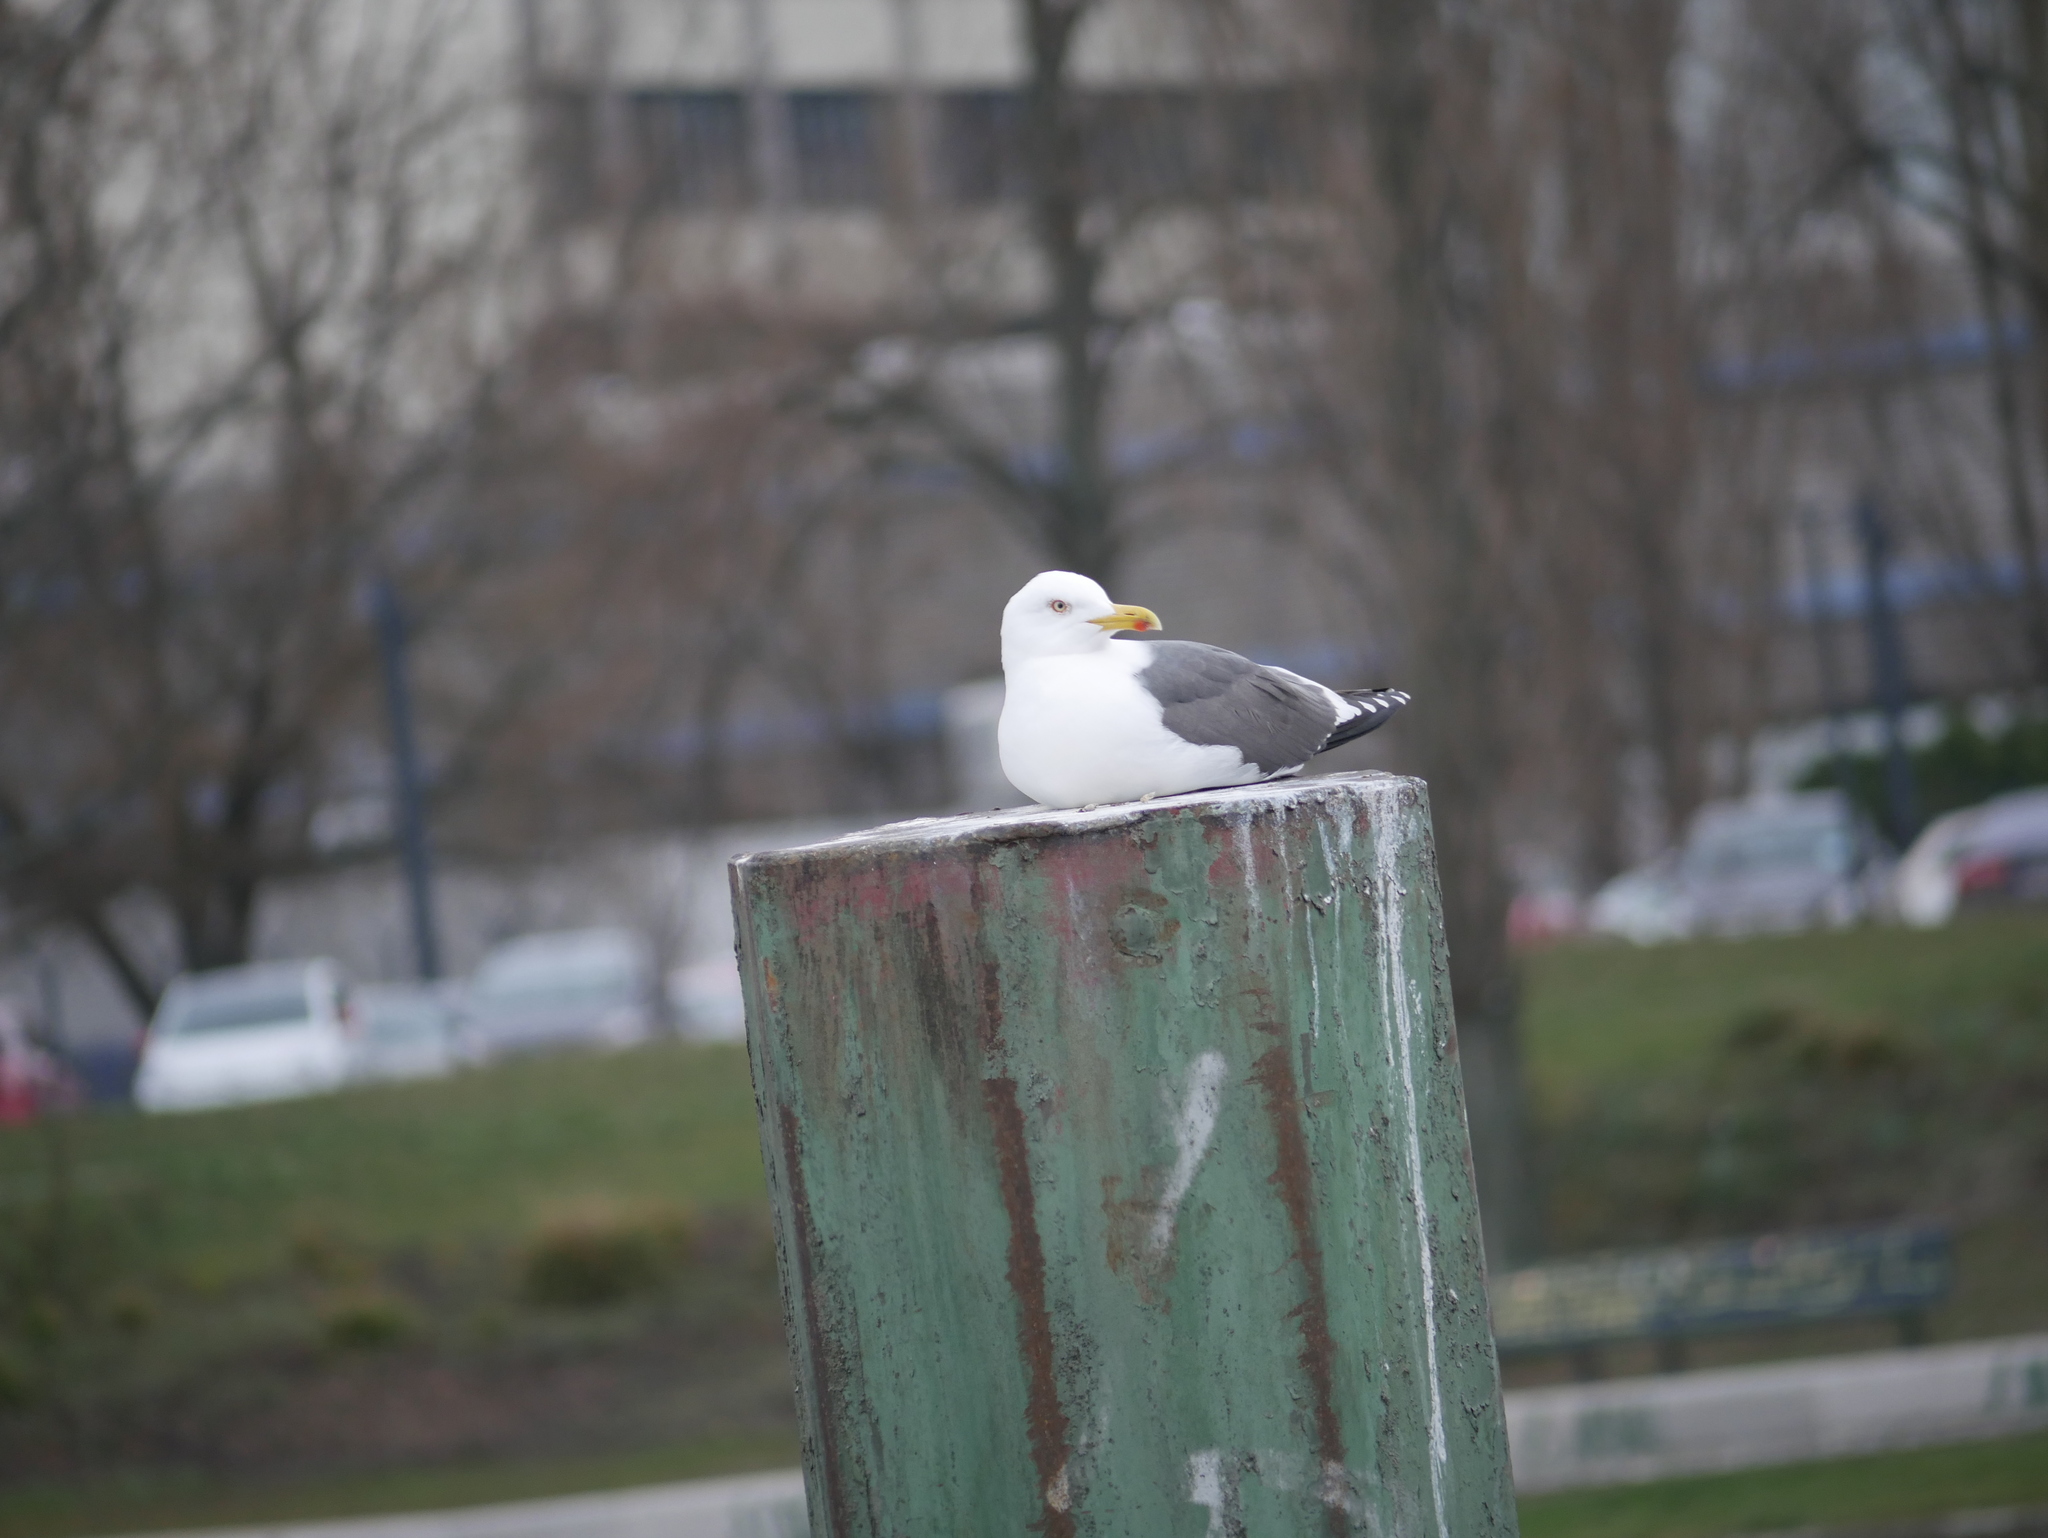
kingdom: Animalia
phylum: Chordata
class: Aves
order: Charadriiformes
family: Laridae
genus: Larus
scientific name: Larus fuscus
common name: Lesser black-backed gull
